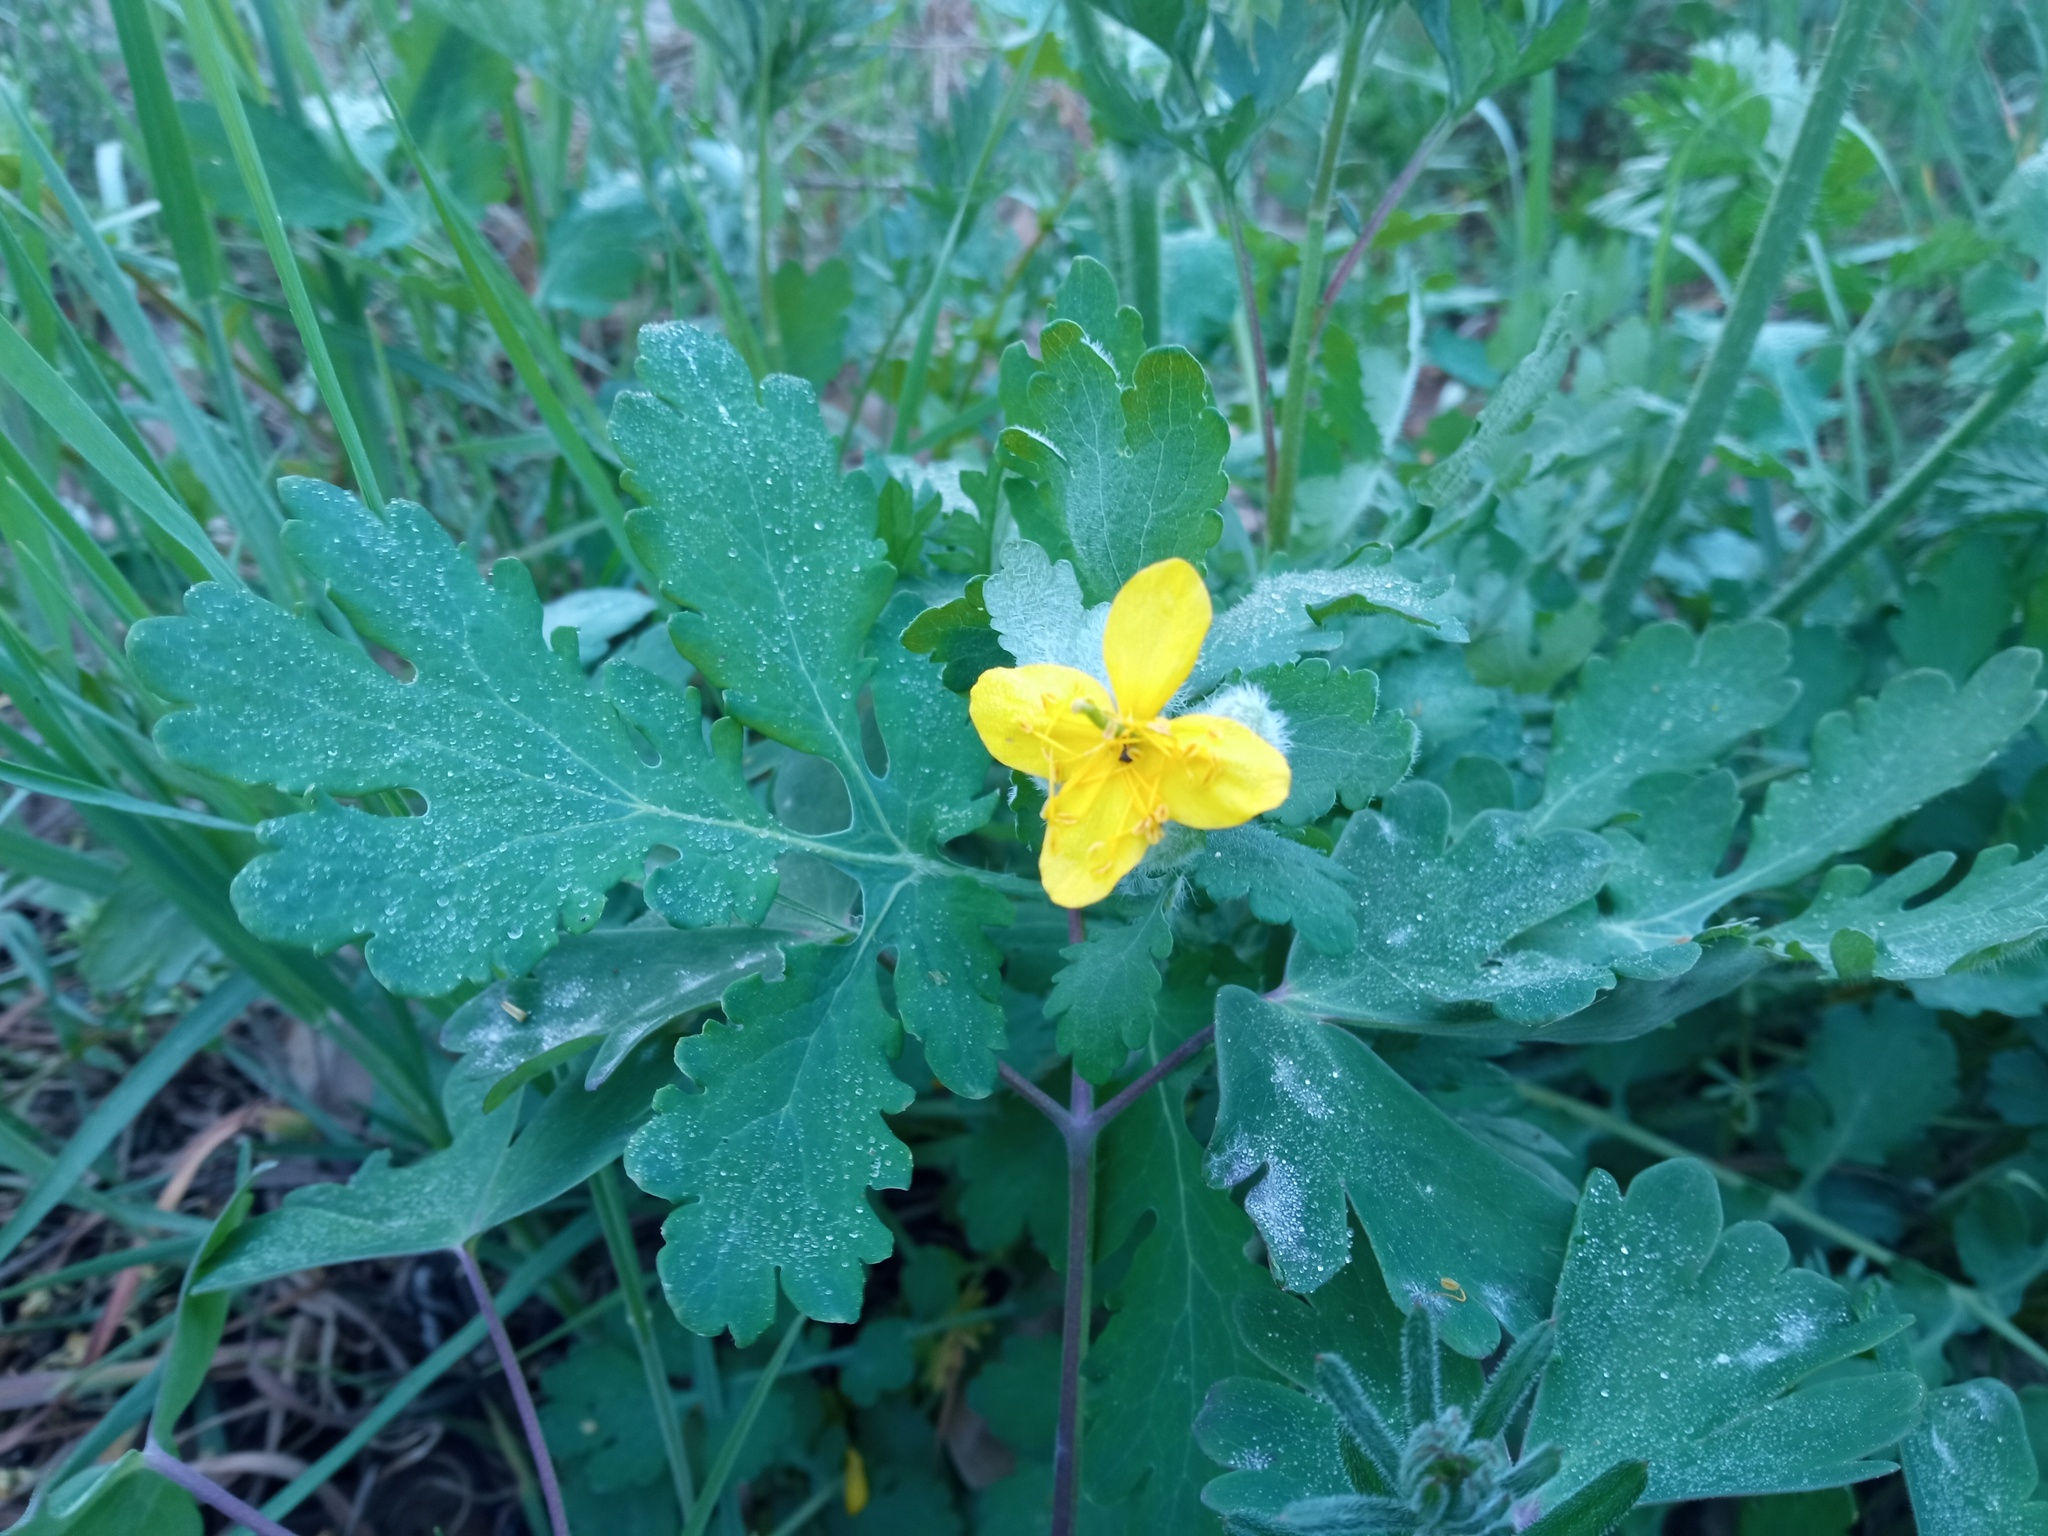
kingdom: Plantae
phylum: Tracheophyta
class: Magnoliopsida
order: Ranunculales
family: Papaveraceae
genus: Chelidonium
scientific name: Chelidonium majus
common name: Greater celandine
